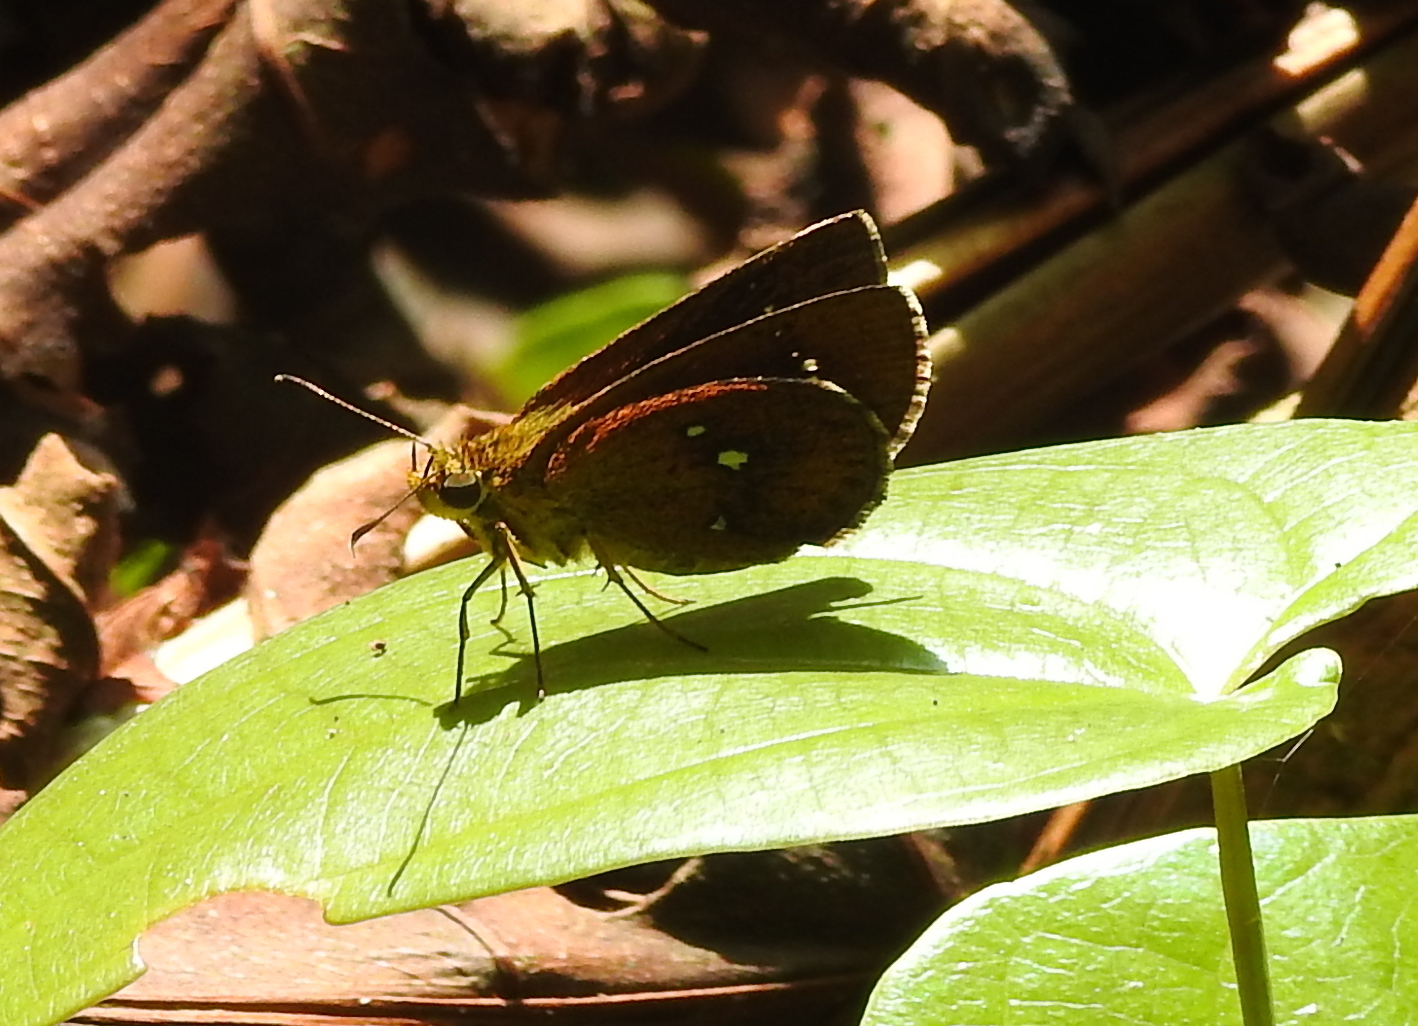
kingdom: Animalia
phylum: Arthropoda
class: Insecta
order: Lepidoptera
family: Hesperiidae
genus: Iambrix
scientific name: Iambrix salsala
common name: Chestnut bob
